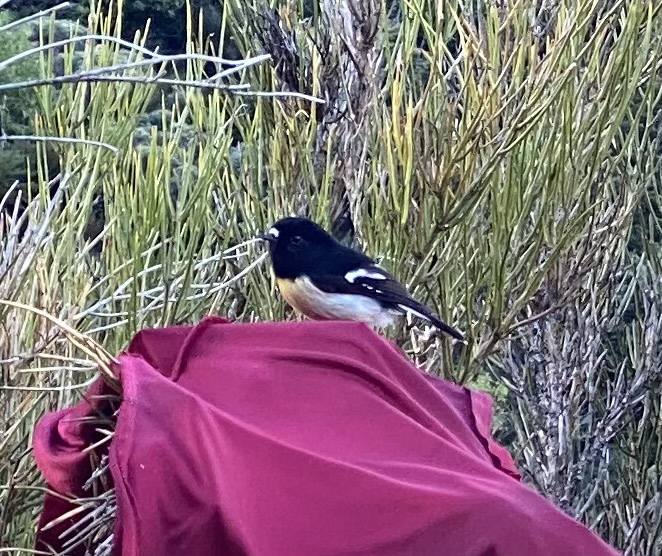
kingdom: Animalia
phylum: Chordata
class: Aves
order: Passeriformes
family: Petroicidae
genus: Petroica
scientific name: Petroica macrocephala
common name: Tomtit
